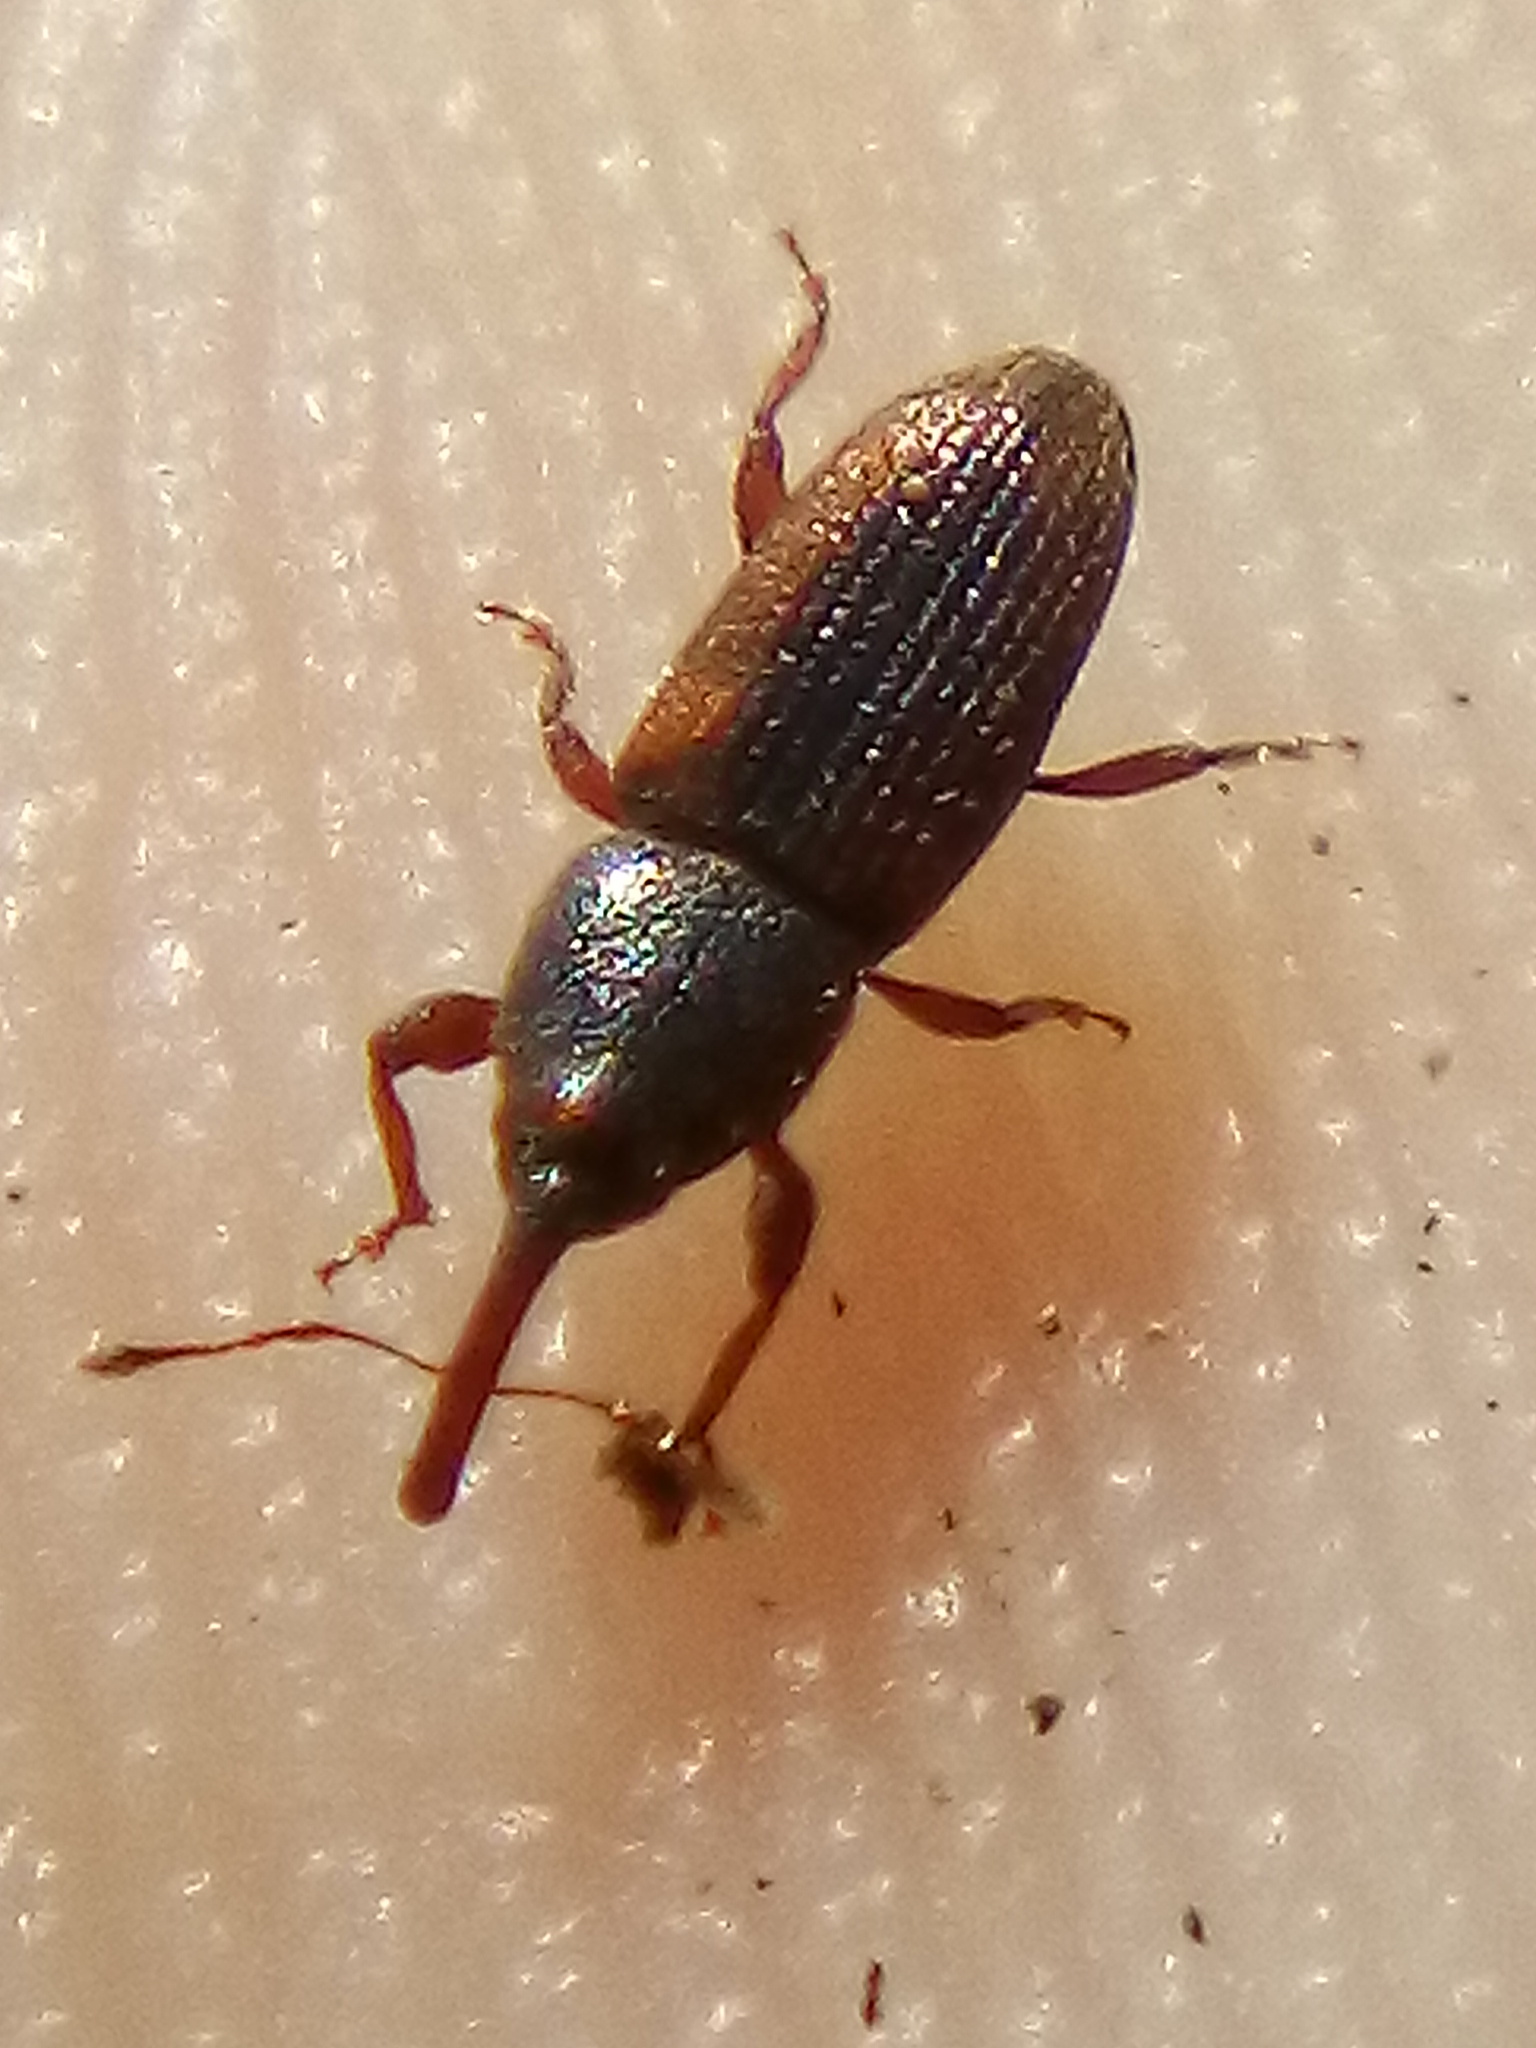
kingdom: Animalia
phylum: Arthropoda
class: Insecta
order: Coleoptera
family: Curculionidae
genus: Arecophaga
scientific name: Arecophaga varia
